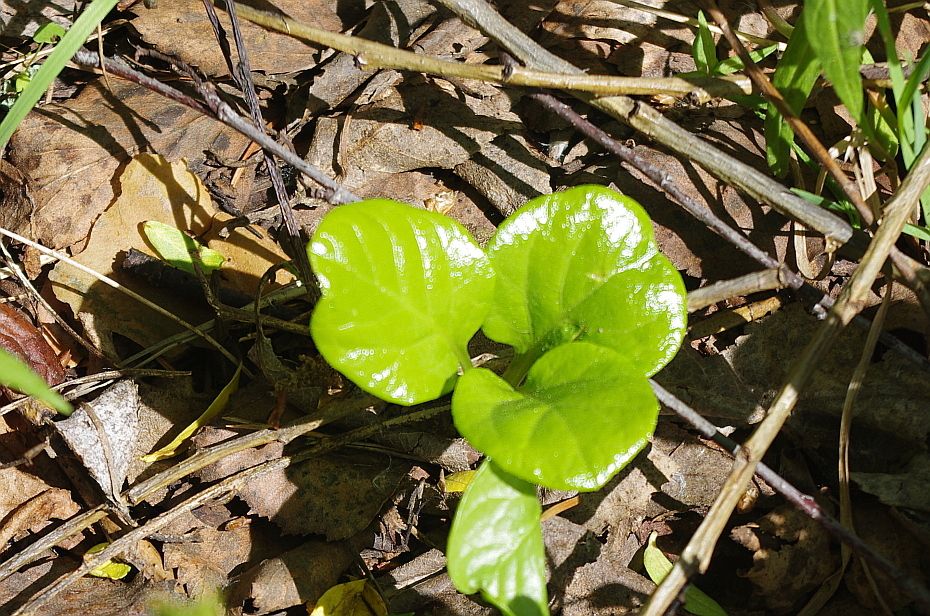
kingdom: Plantae
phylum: Tracheophyta
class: Magnoliopsida
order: Ericales
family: Ericaceae
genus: Pyrola
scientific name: Pyrola rotundifolia
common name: Round-leaved wintergreen
